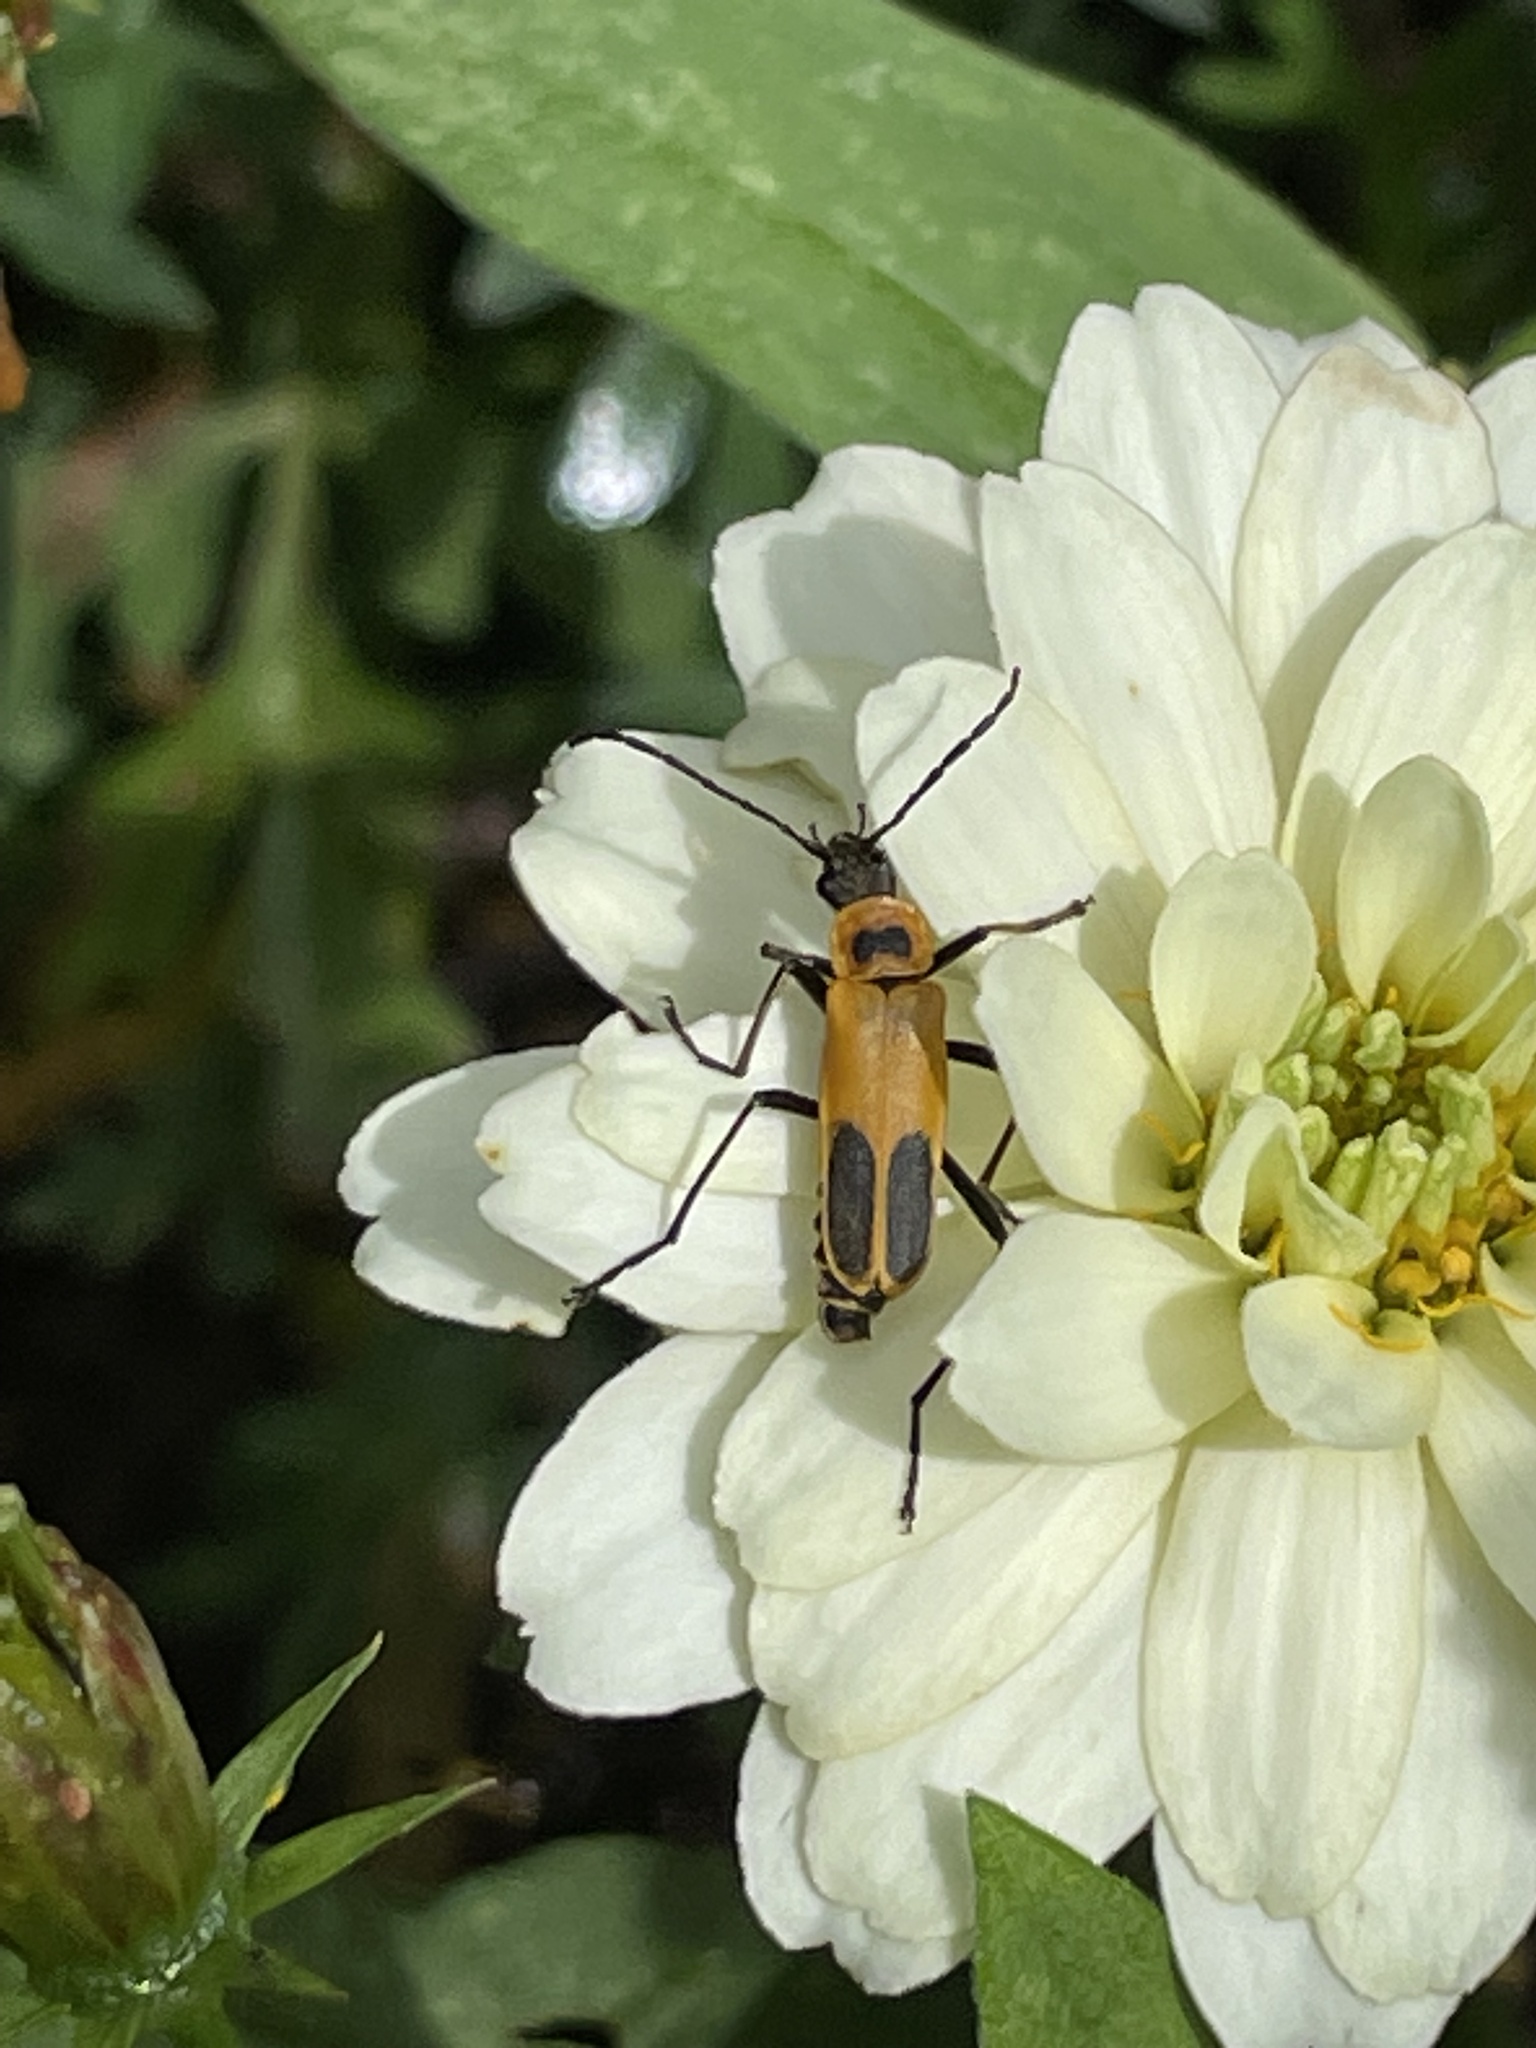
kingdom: Animalia
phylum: Arthropoda
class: Insecta
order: Coleoptera
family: Cantharidae
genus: Chauliognathus
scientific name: Chauliognathus pensylvanicus
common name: Goldenrod soldier beetle
